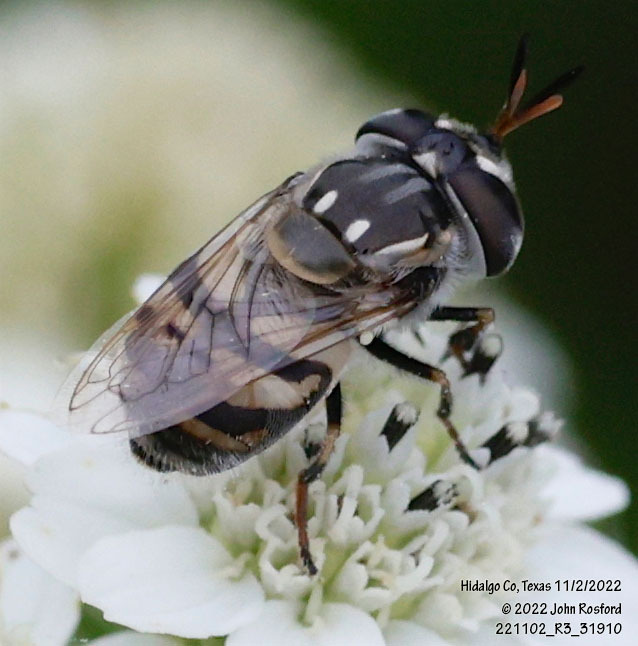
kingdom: Animalia
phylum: Arthropoda
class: Insecta
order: Diptera
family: Syrphidae
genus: Copestylum
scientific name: Copestylum marginatum
